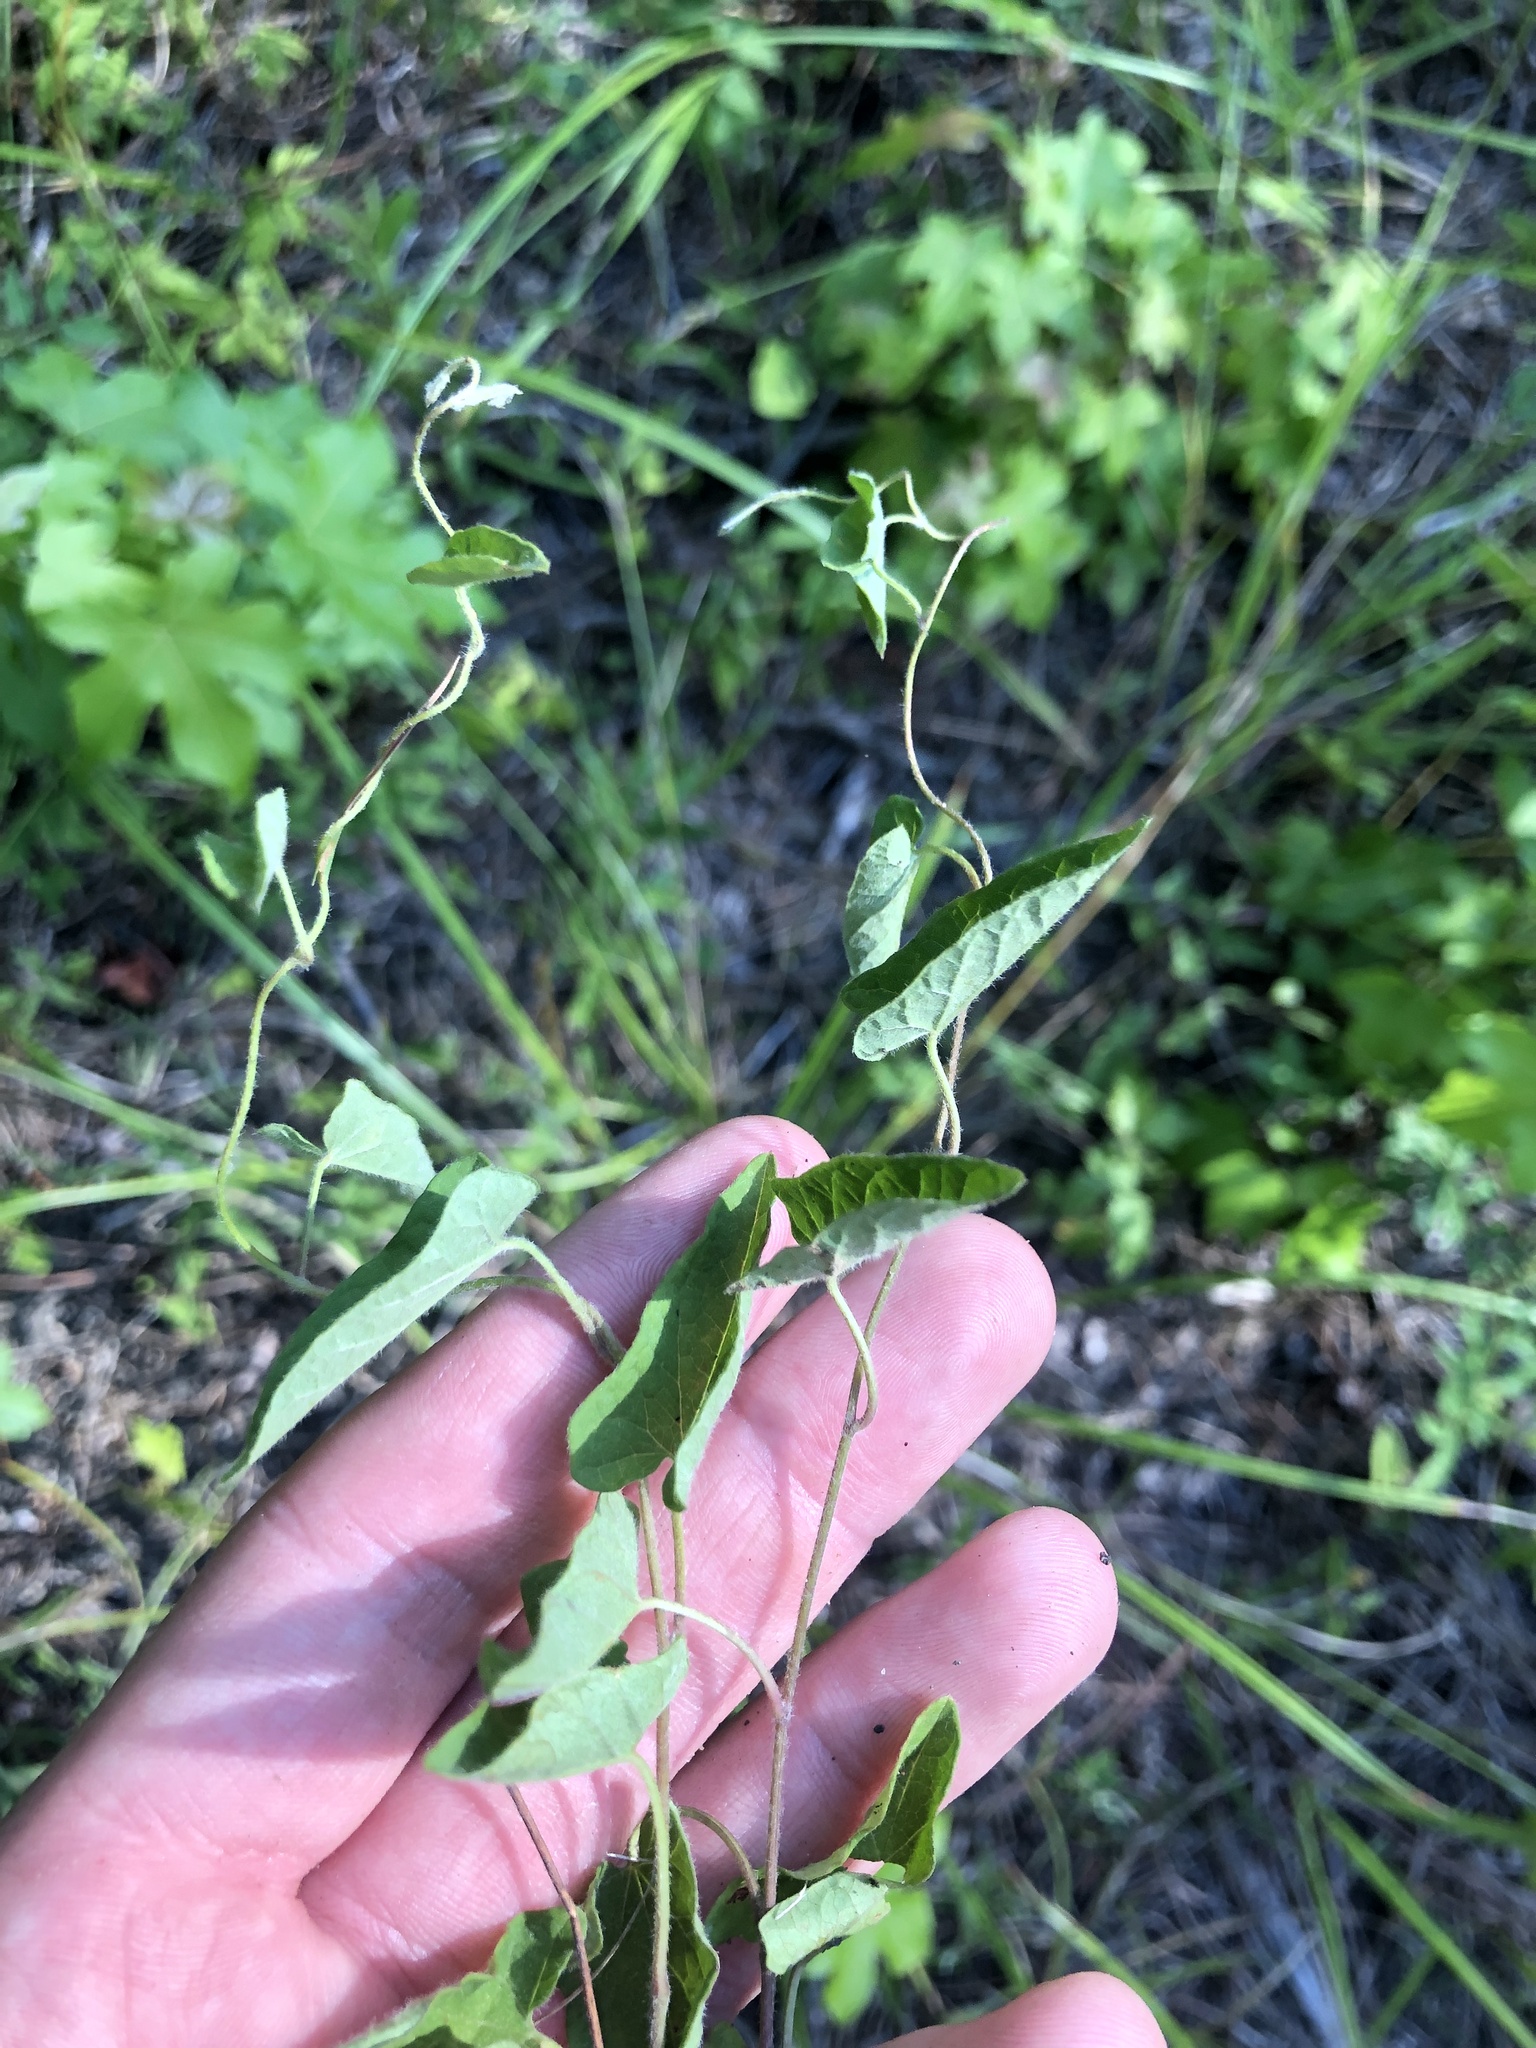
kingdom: Plantae
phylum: Tracheophyta
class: Magnoliopsida
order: Solanales
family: Convolvulaceae
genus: Calystegia
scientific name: Calystegia catesbeiana
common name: Catesby's false bindweed
